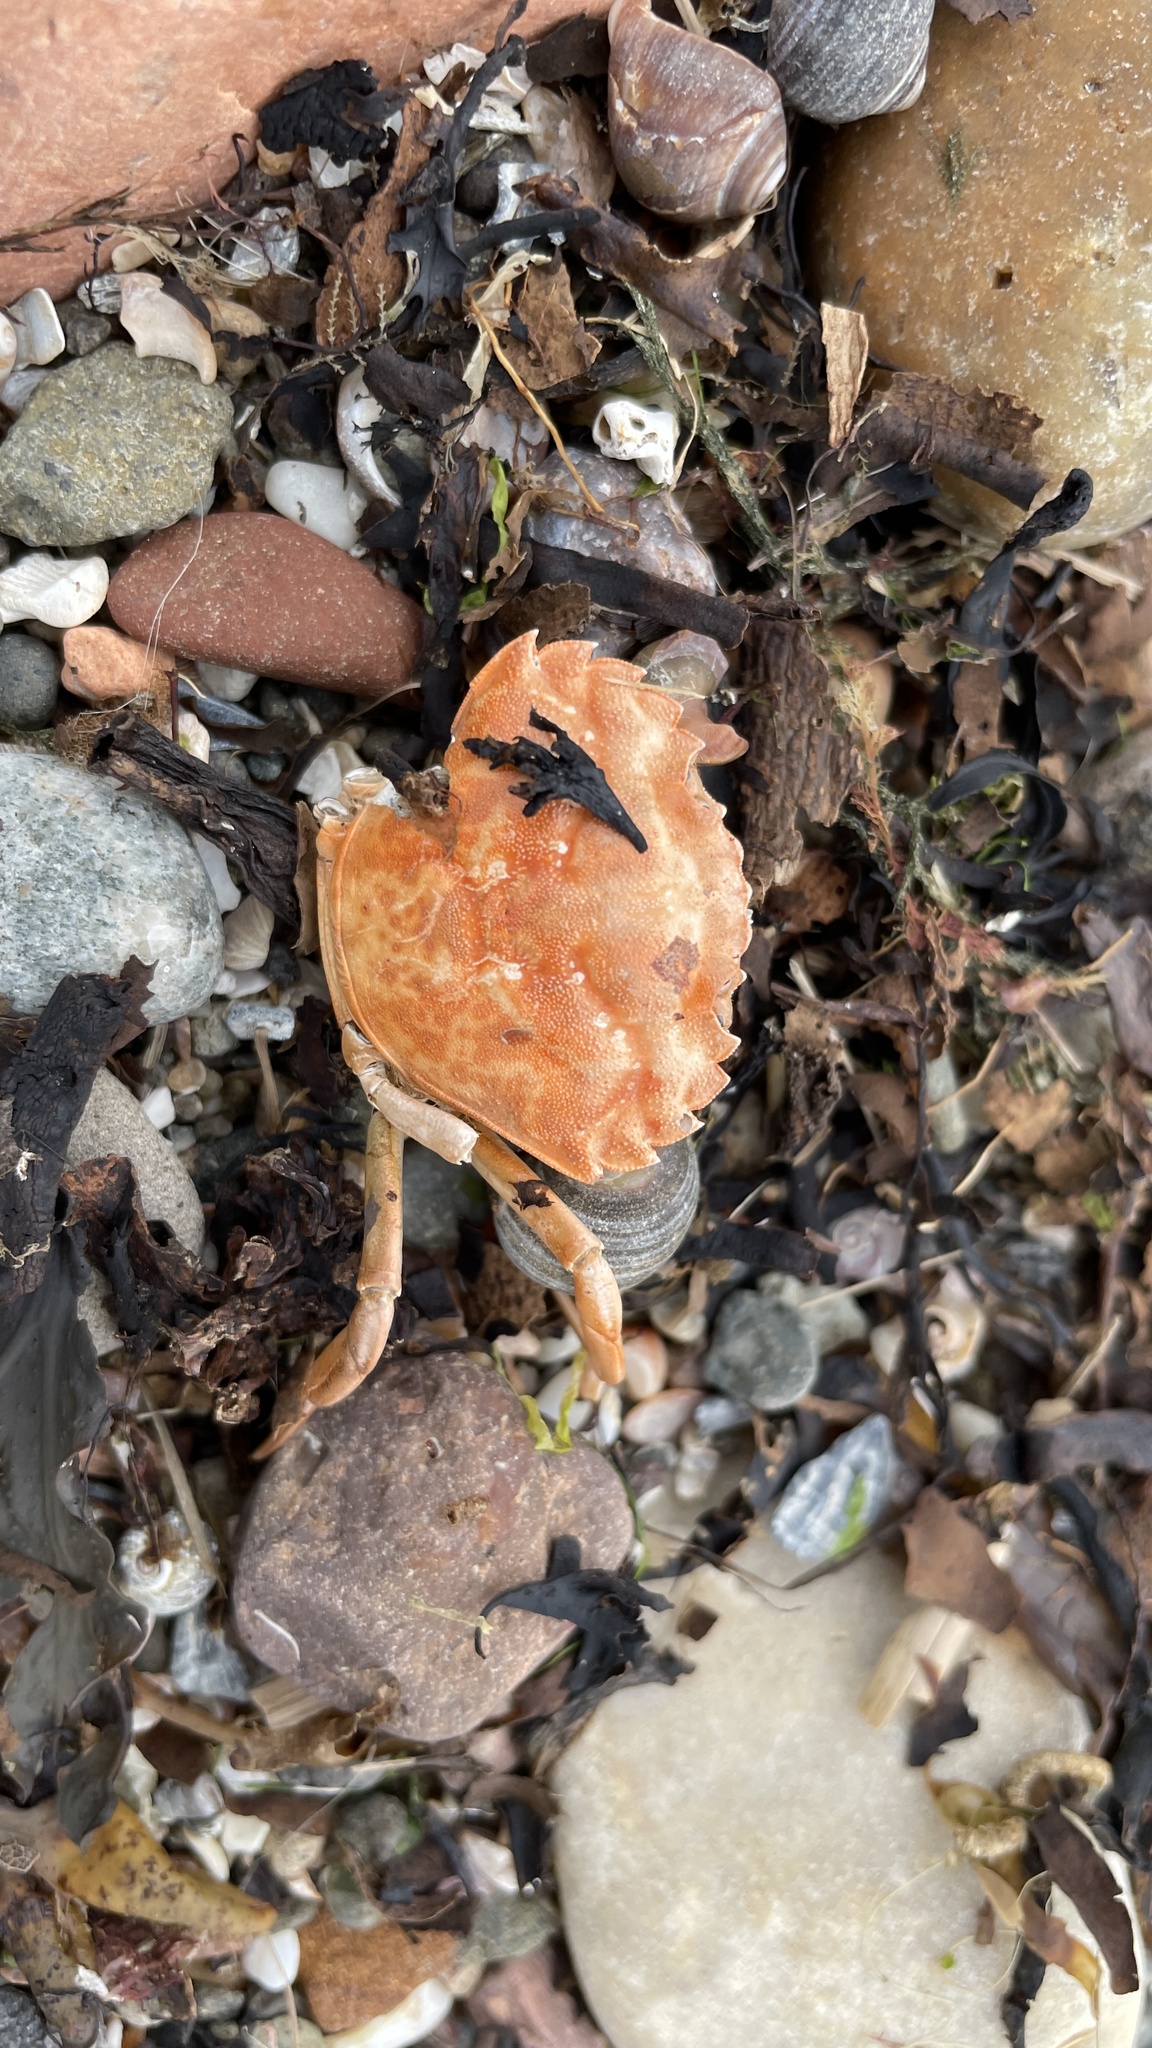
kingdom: Animalia
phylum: Arthropoda
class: Malacostraca
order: Decapoda
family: Carcinidae
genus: Carcinus
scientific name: Carcinus maenas
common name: European green crab
